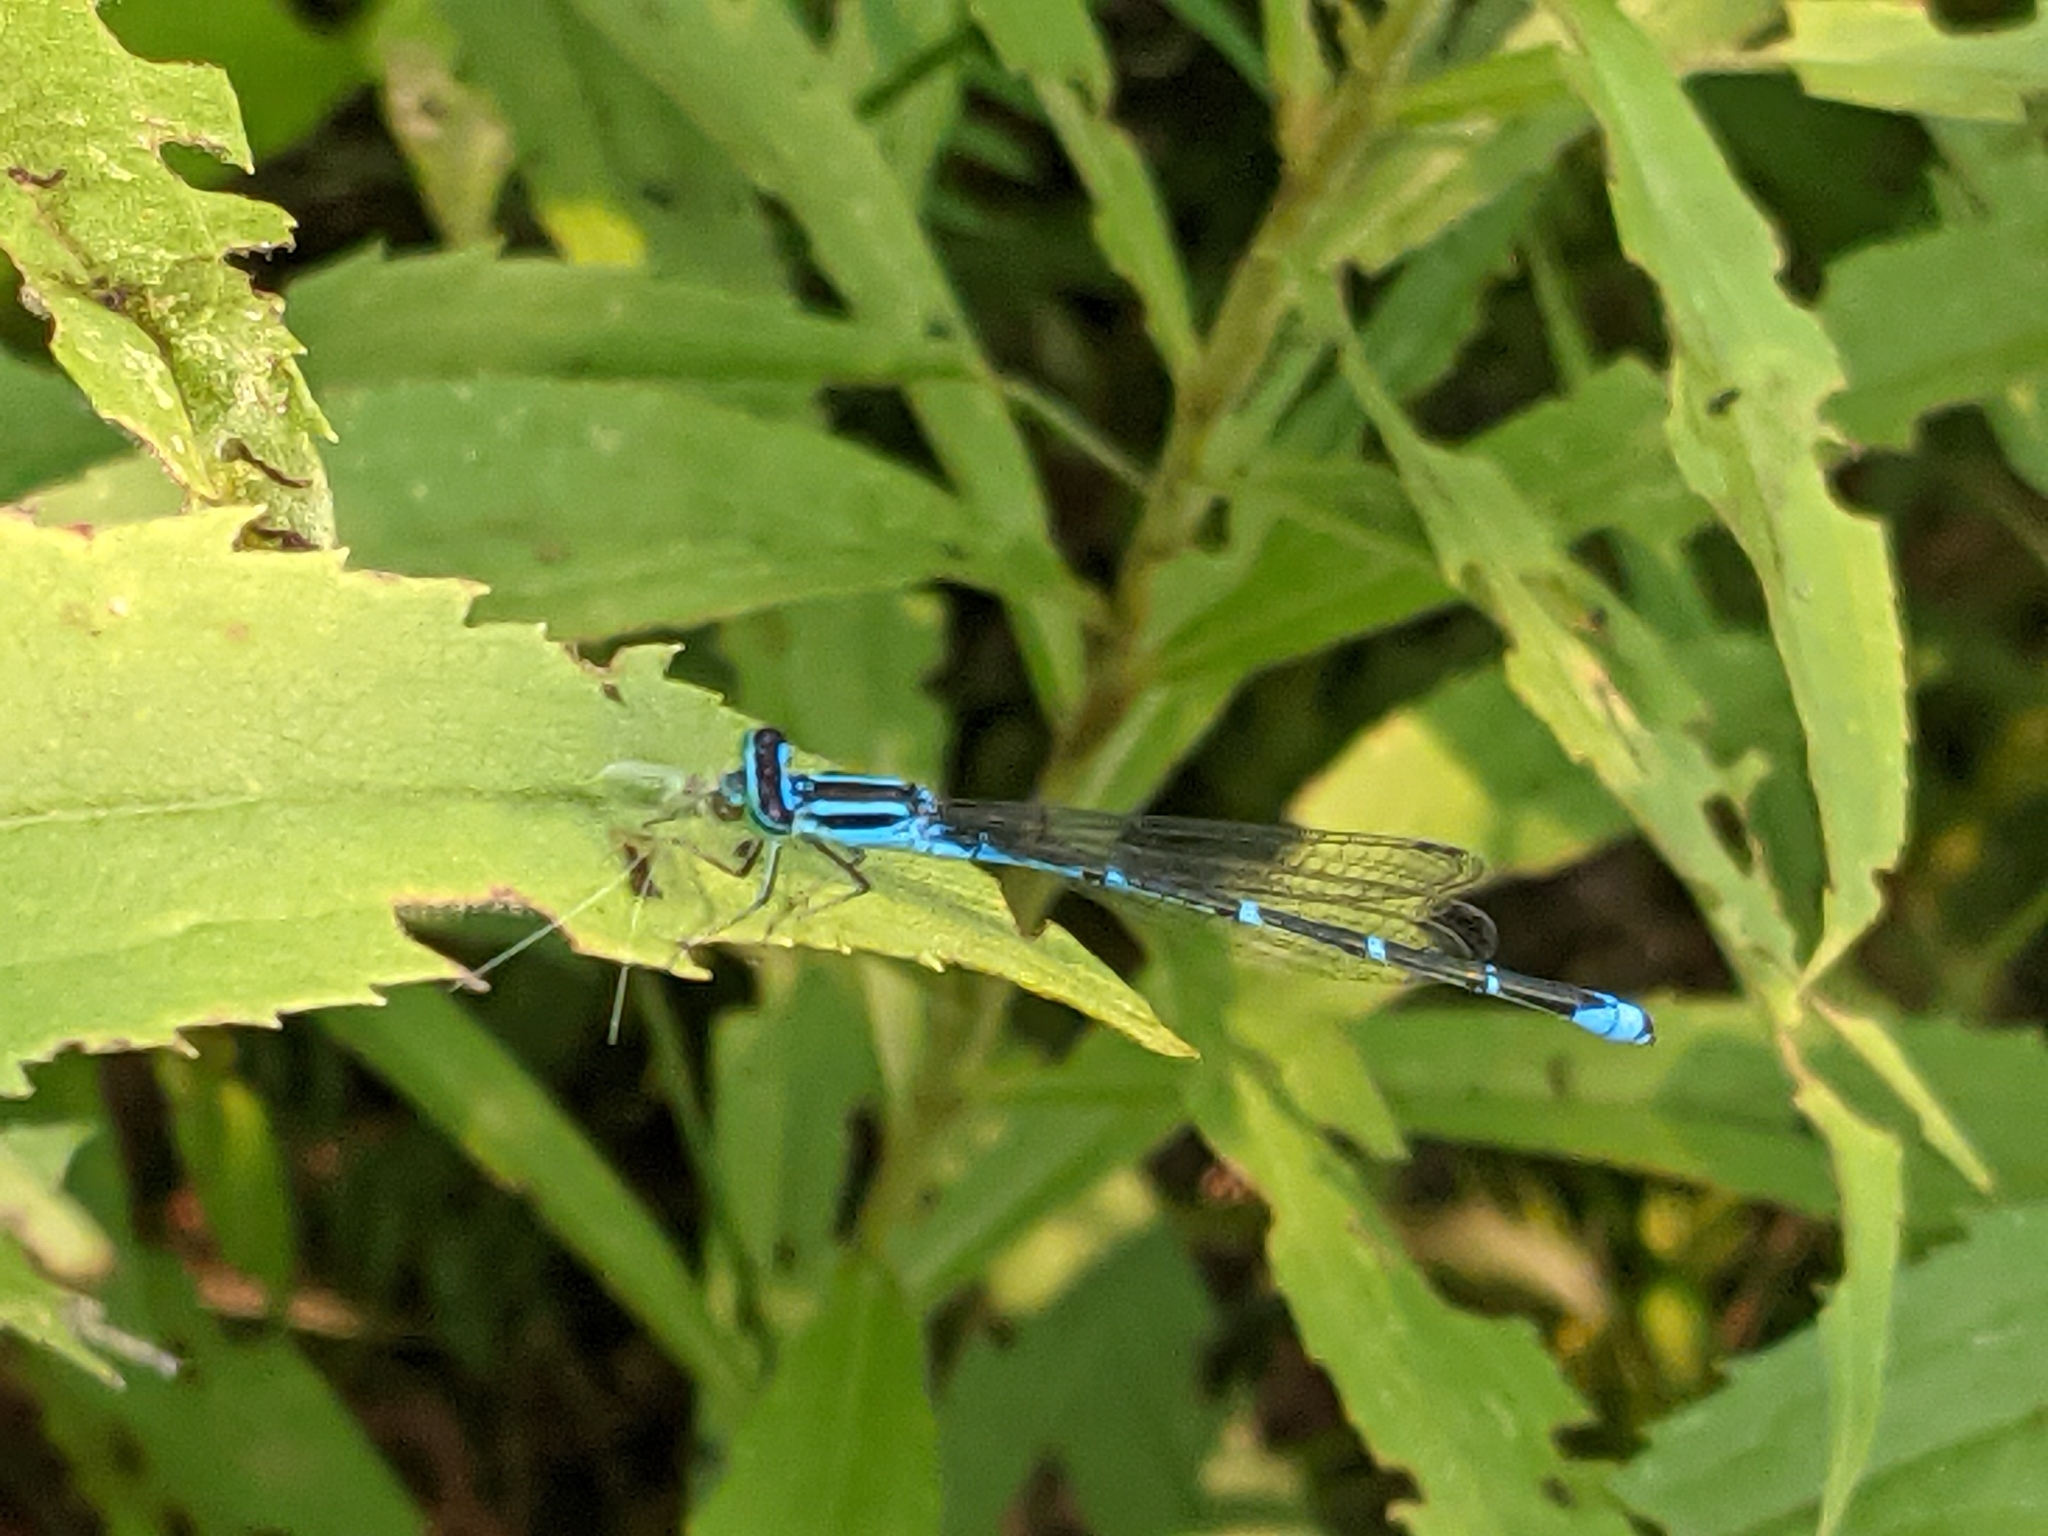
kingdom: Animalia
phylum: Arthropoda
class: Insecta
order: Odonata
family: Coenagrionidae
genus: Enallagma
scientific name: Enallagma exsulans
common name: Stream bluet
